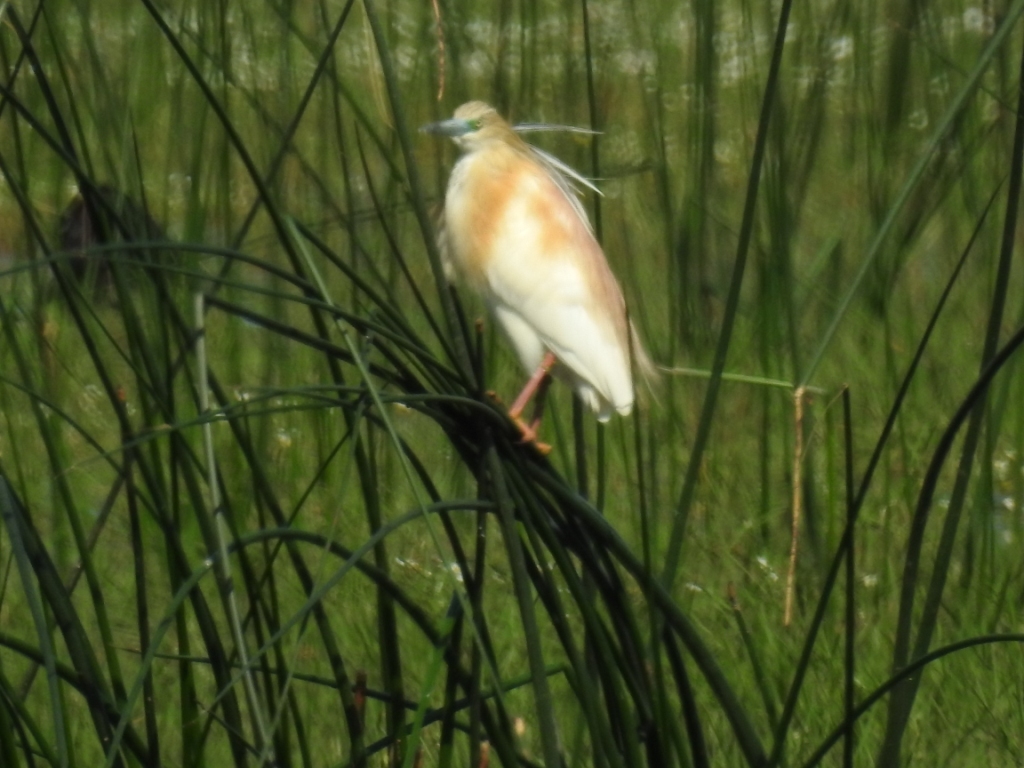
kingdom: Animalia
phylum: Chordata
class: Aves
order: Pelecaniformes
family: Ardeidae
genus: Ardeola
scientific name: Ardeola ralloides
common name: Squacco heron
